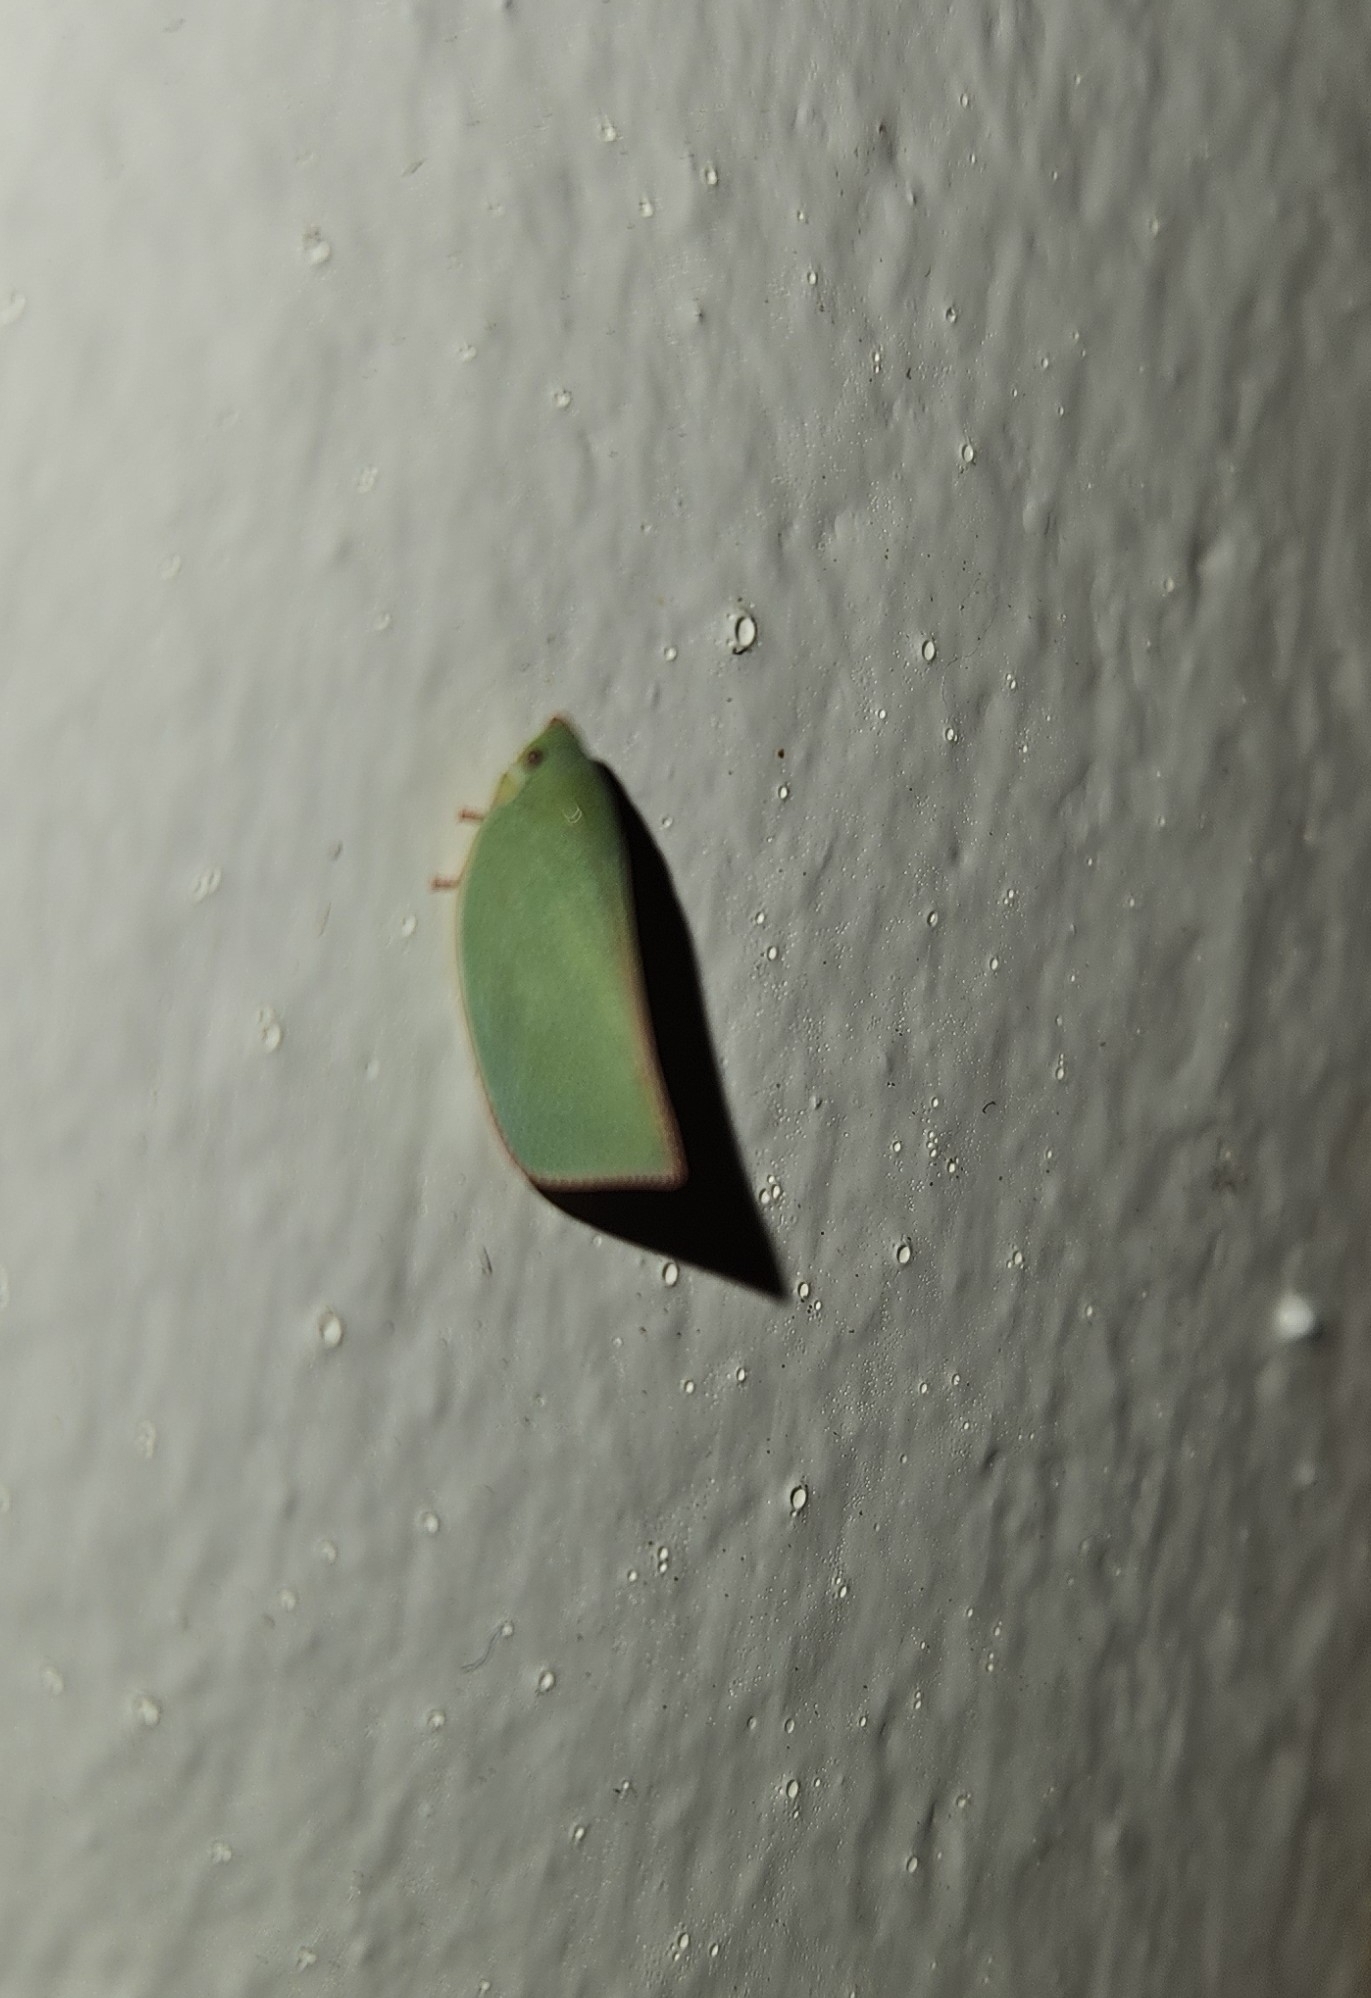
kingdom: Animalia
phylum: Arthropoda
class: Insecta
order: Hemiptera
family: Flatidae
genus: Siphanta
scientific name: Siphanta acuta
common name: Torpedo bug
